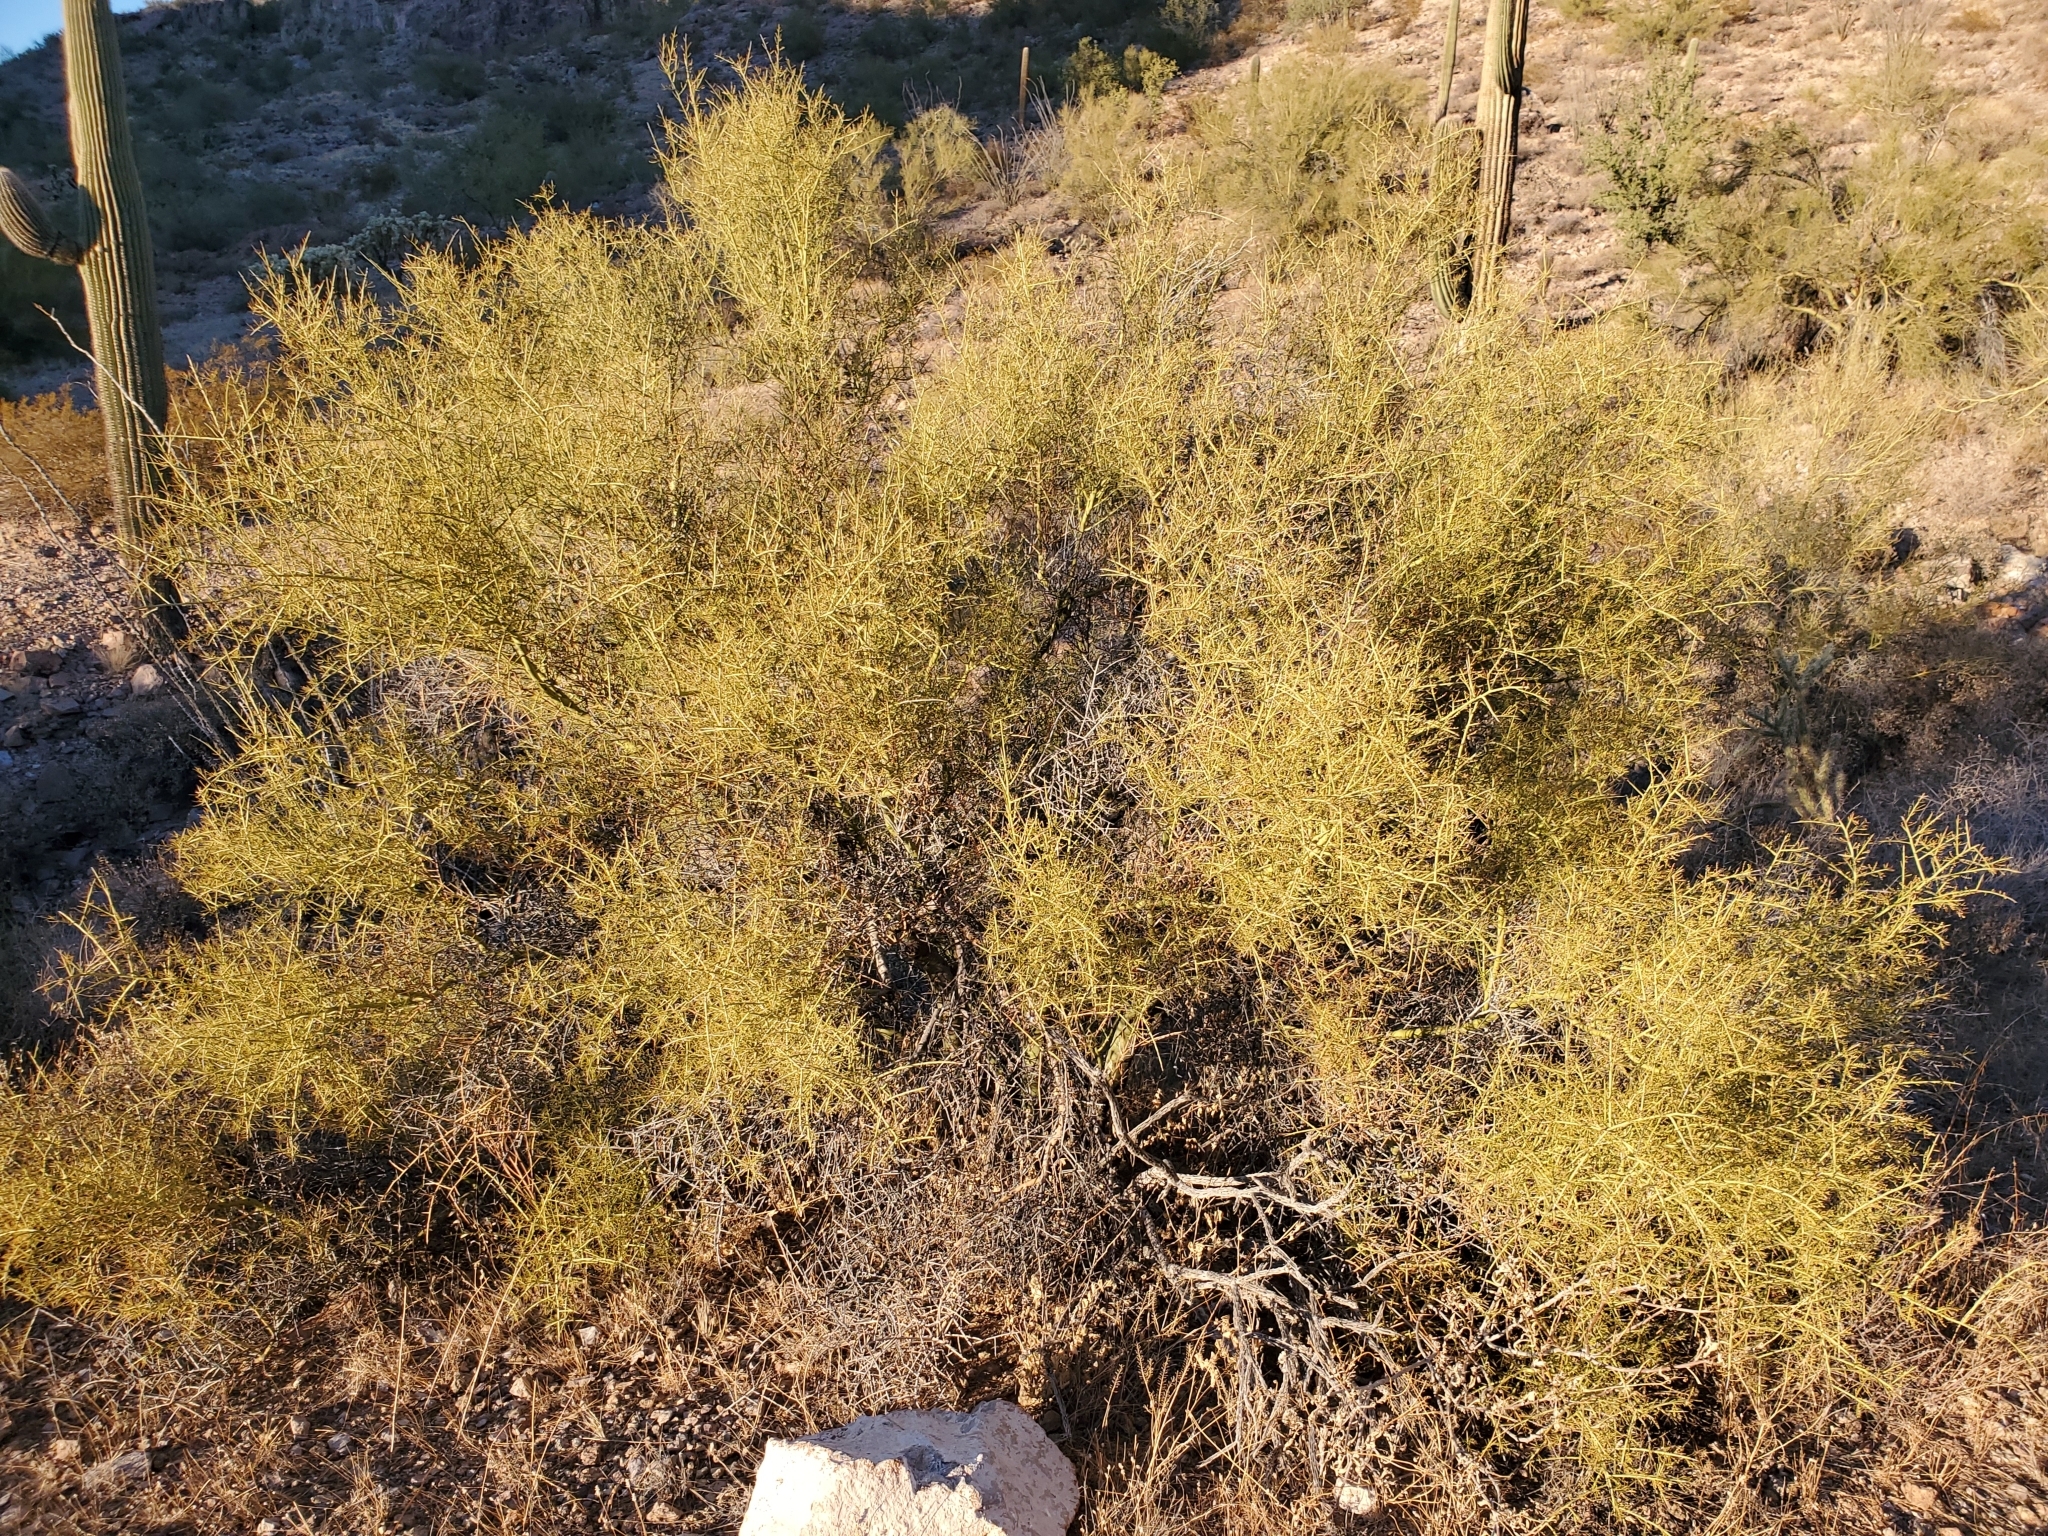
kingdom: Plantae
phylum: Tracheophyta
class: Magnoliopsida
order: Fabales
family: Fabaceae
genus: Parkinsonia
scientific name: Parkinsonia microphylla
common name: Yellow paloverde
